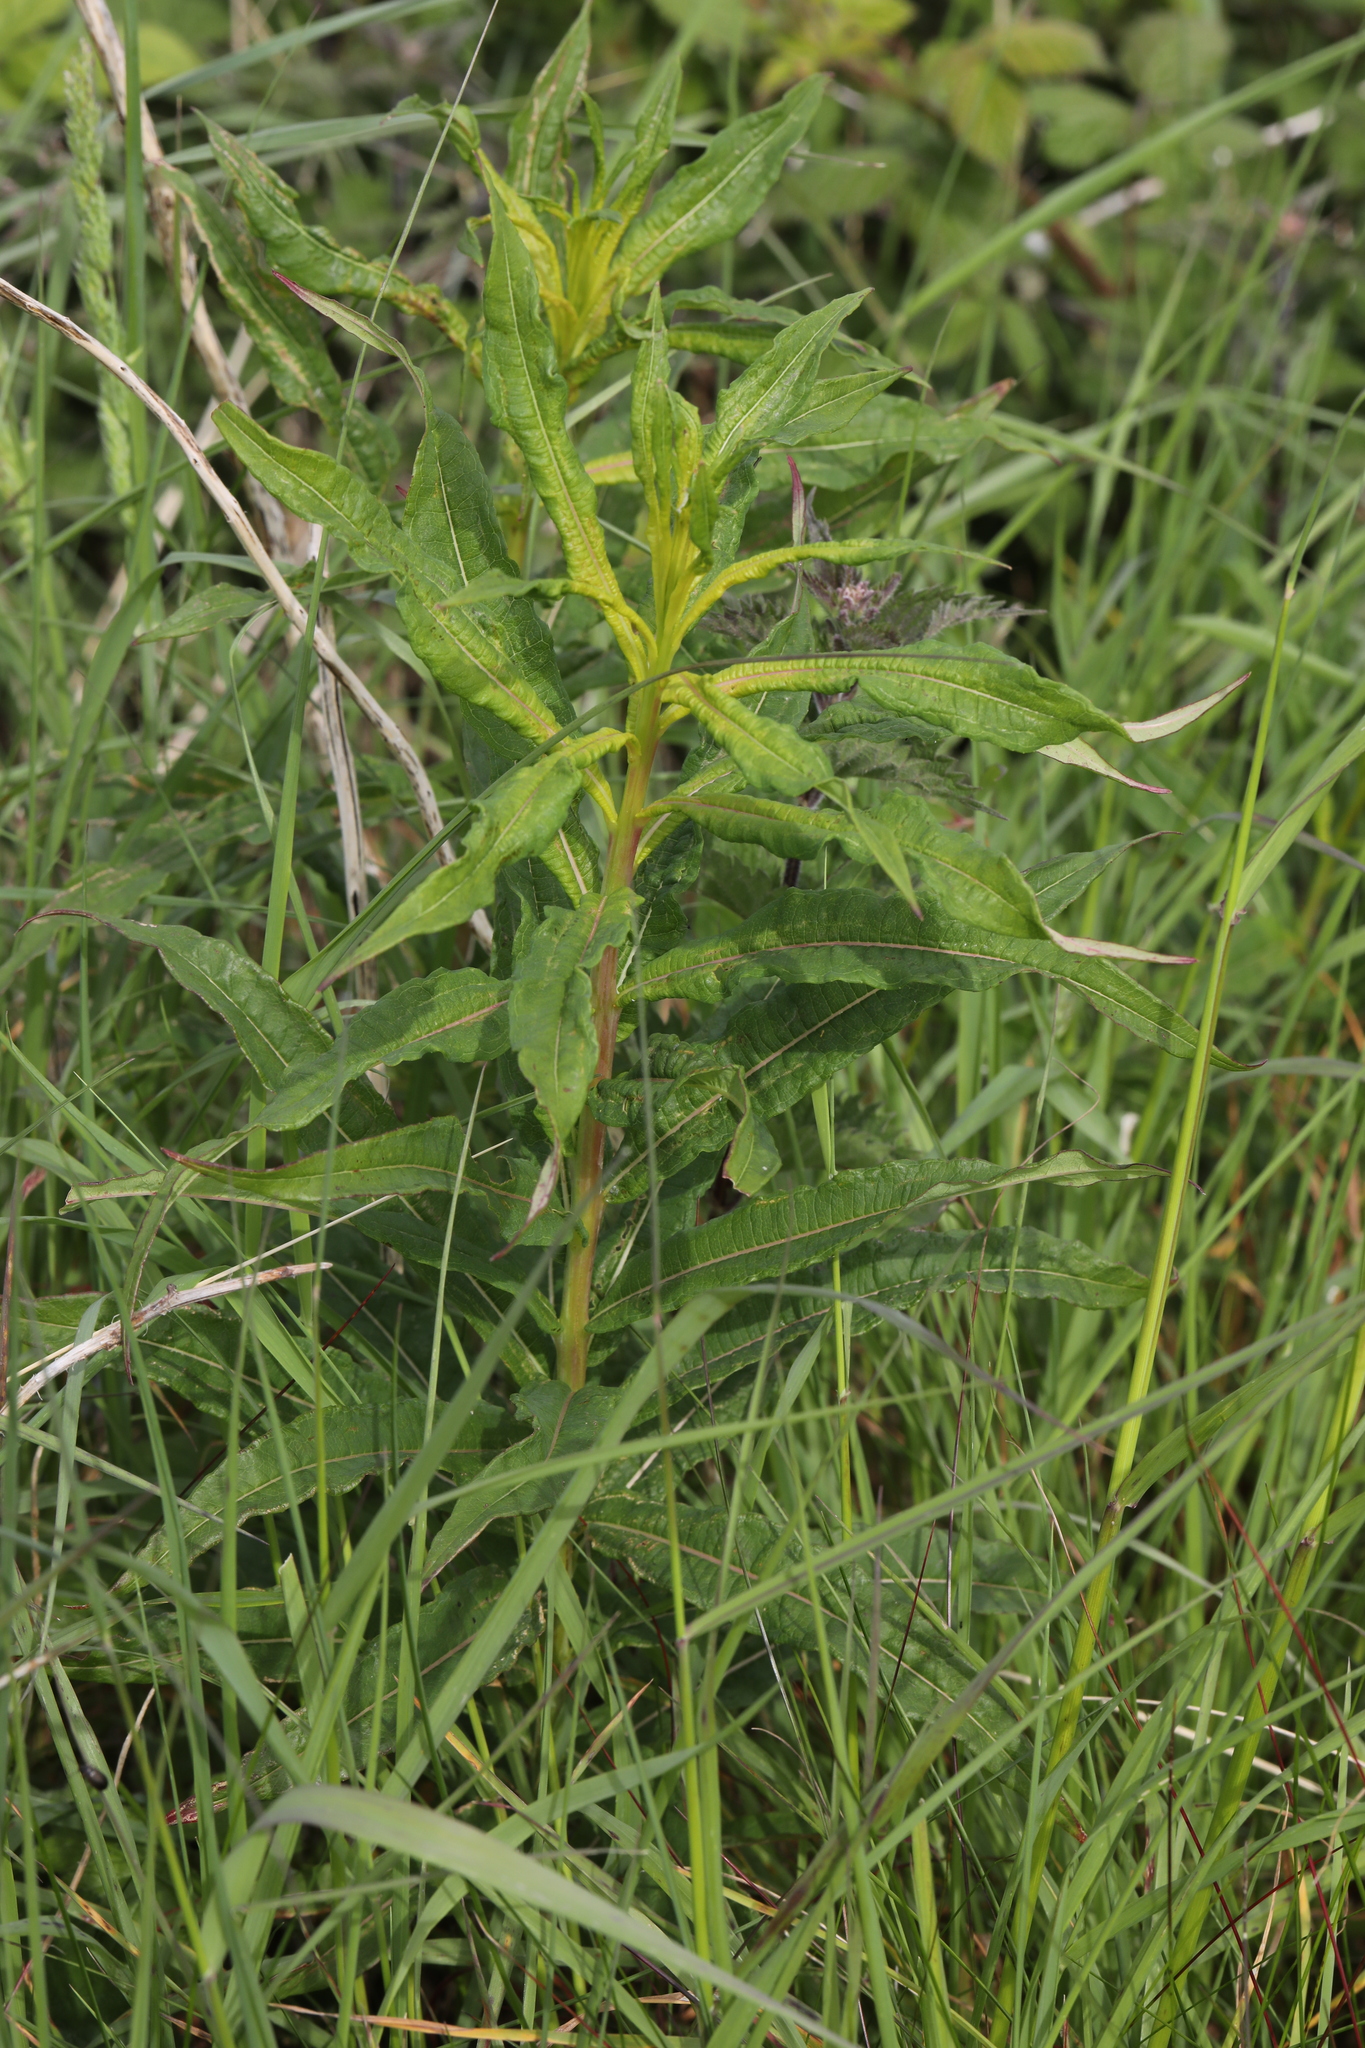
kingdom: Plantae
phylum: Tracheophyta
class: Magnoliopsida
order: Myrtales
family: Onagraceae
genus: Chamaenerion
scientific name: Chamaenerion angustifolium
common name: Fireweed
